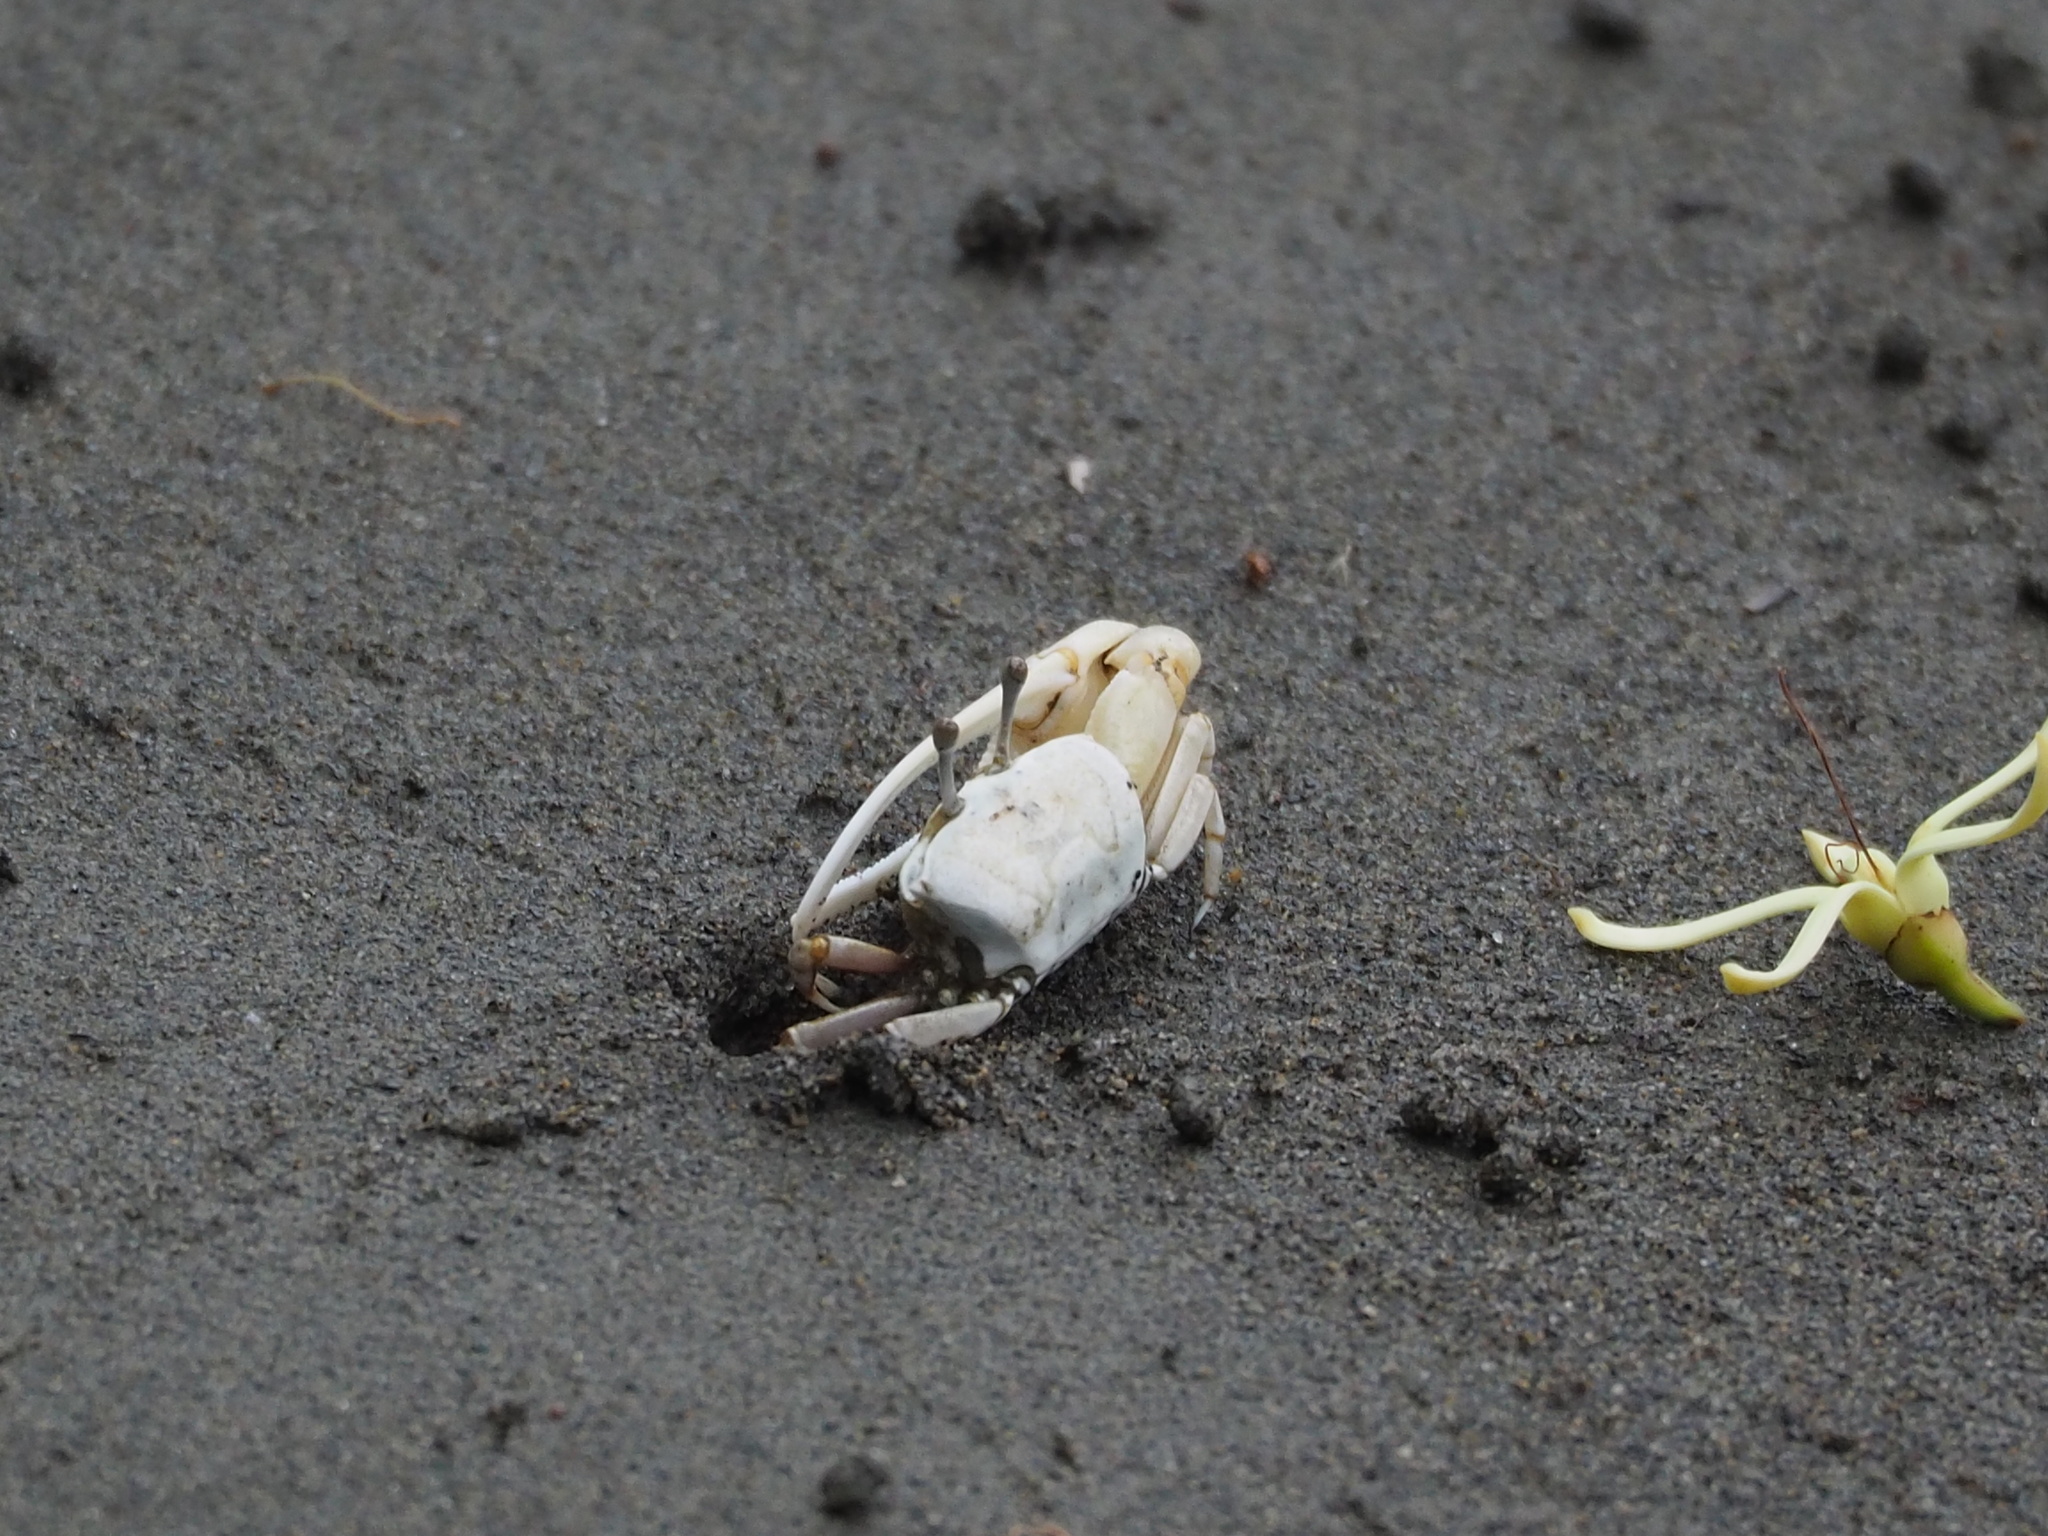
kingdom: Animalia
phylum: Arthropoda
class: Malacostraca
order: Decapoda
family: Ocypodidae
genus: Austruca
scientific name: Austruca lactea
